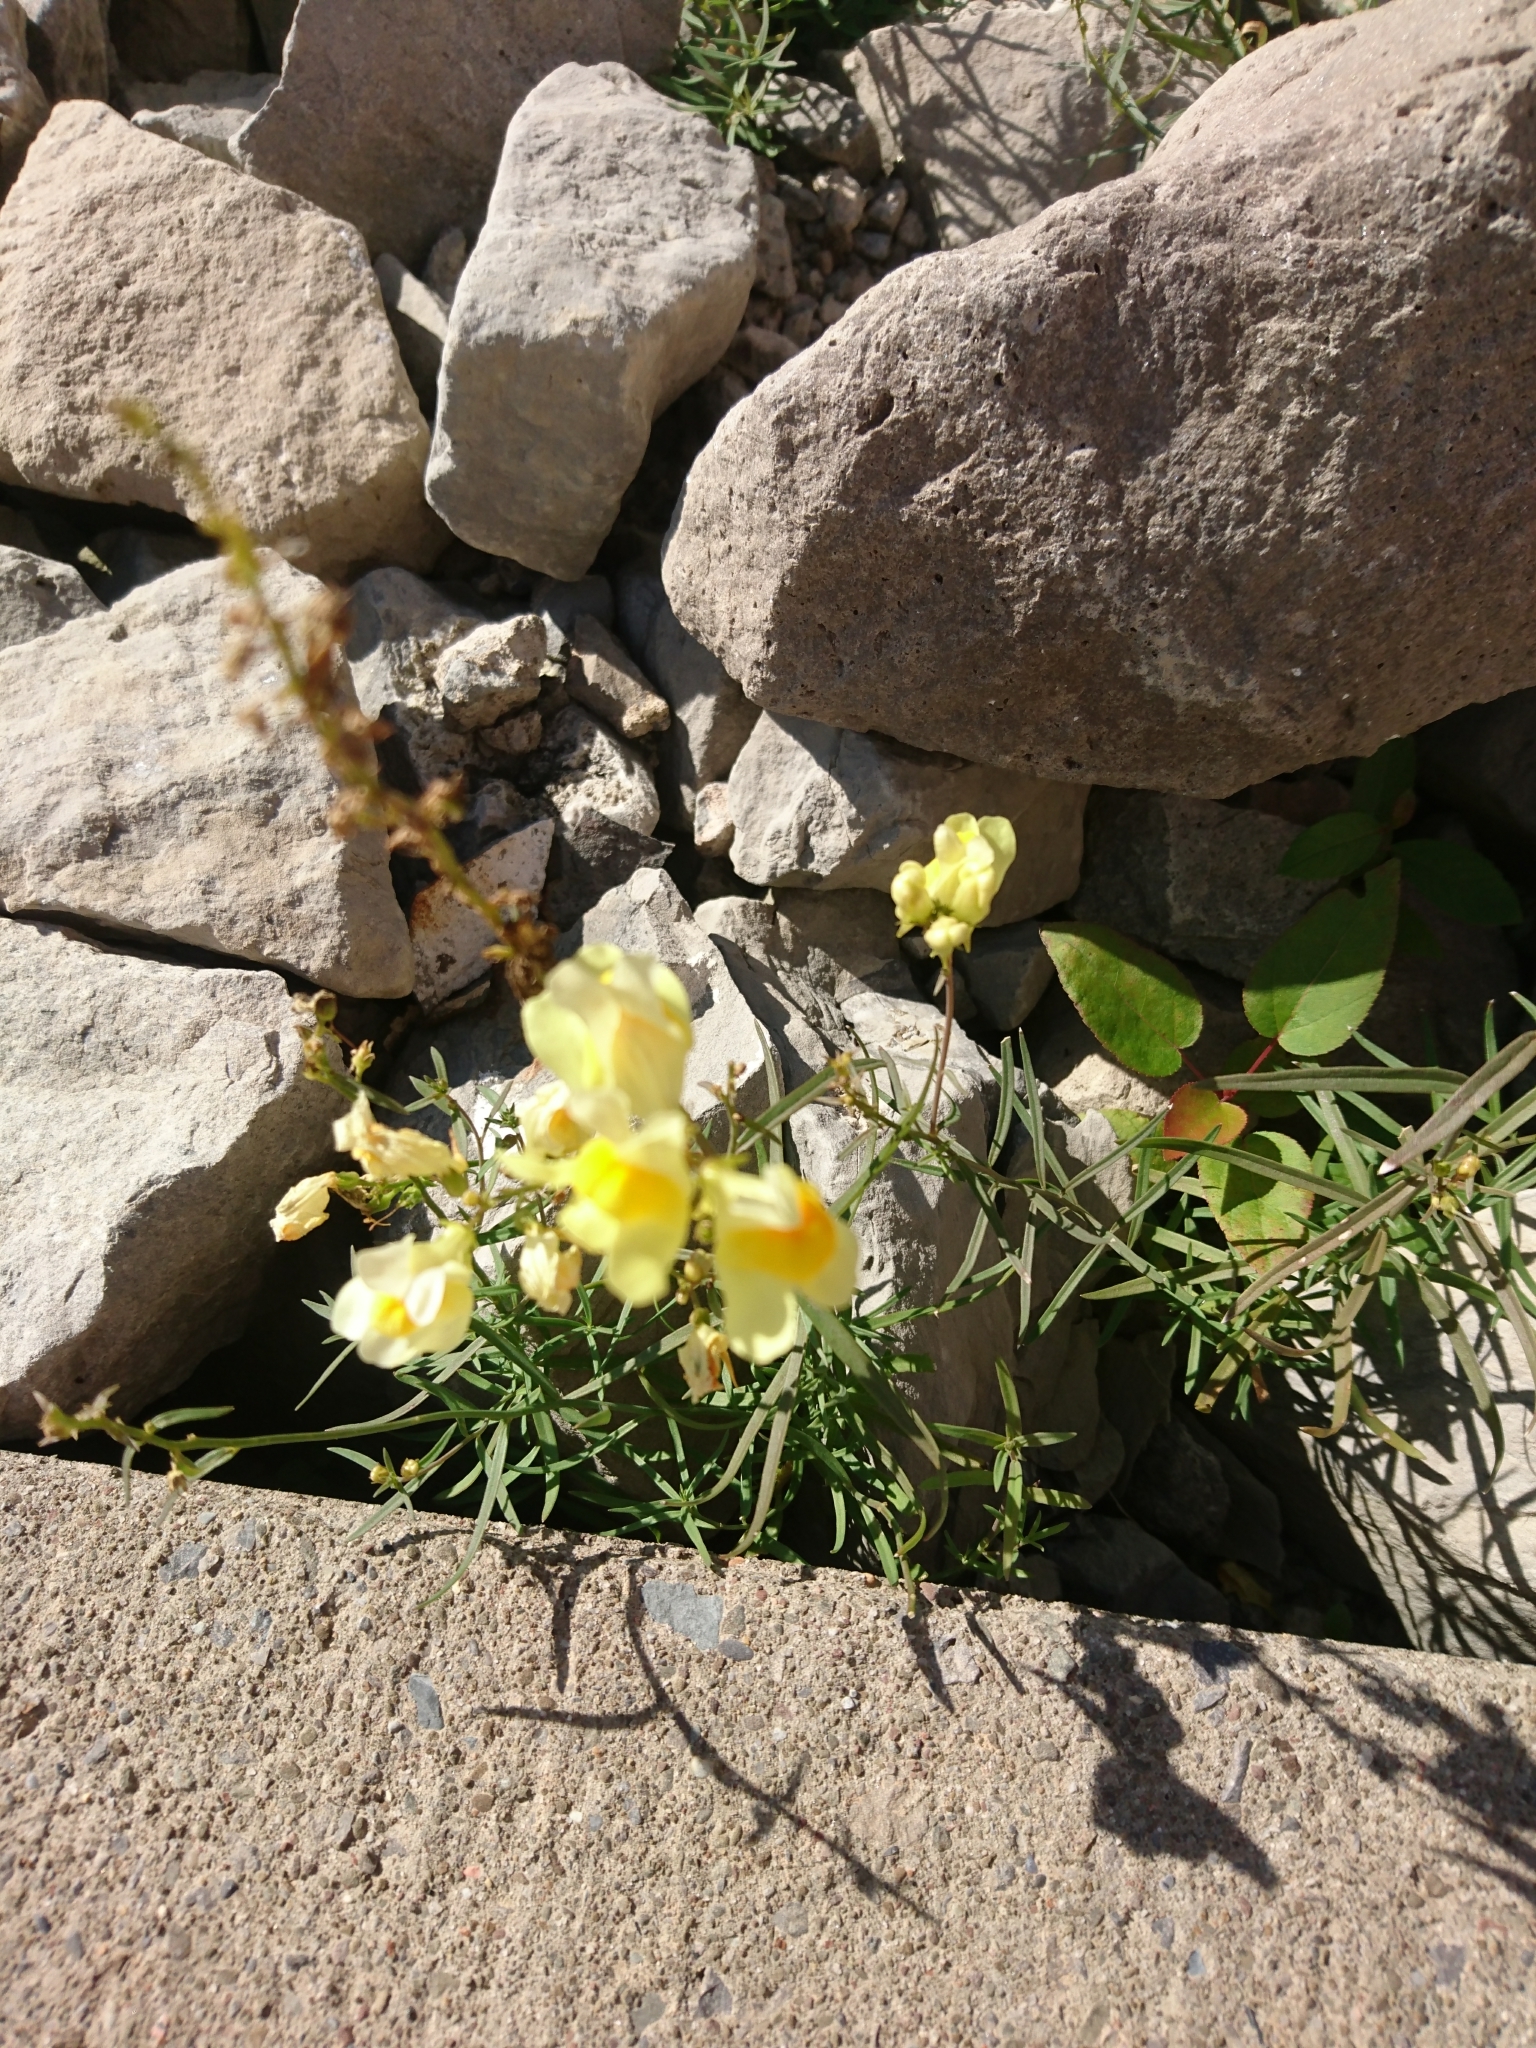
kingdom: Plantae
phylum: Tracheophyta
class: Magnoliopsida
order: Lamiales
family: Plantaginaceae
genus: Linaria
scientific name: Linaria vulgaris
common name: Butter and eggs
